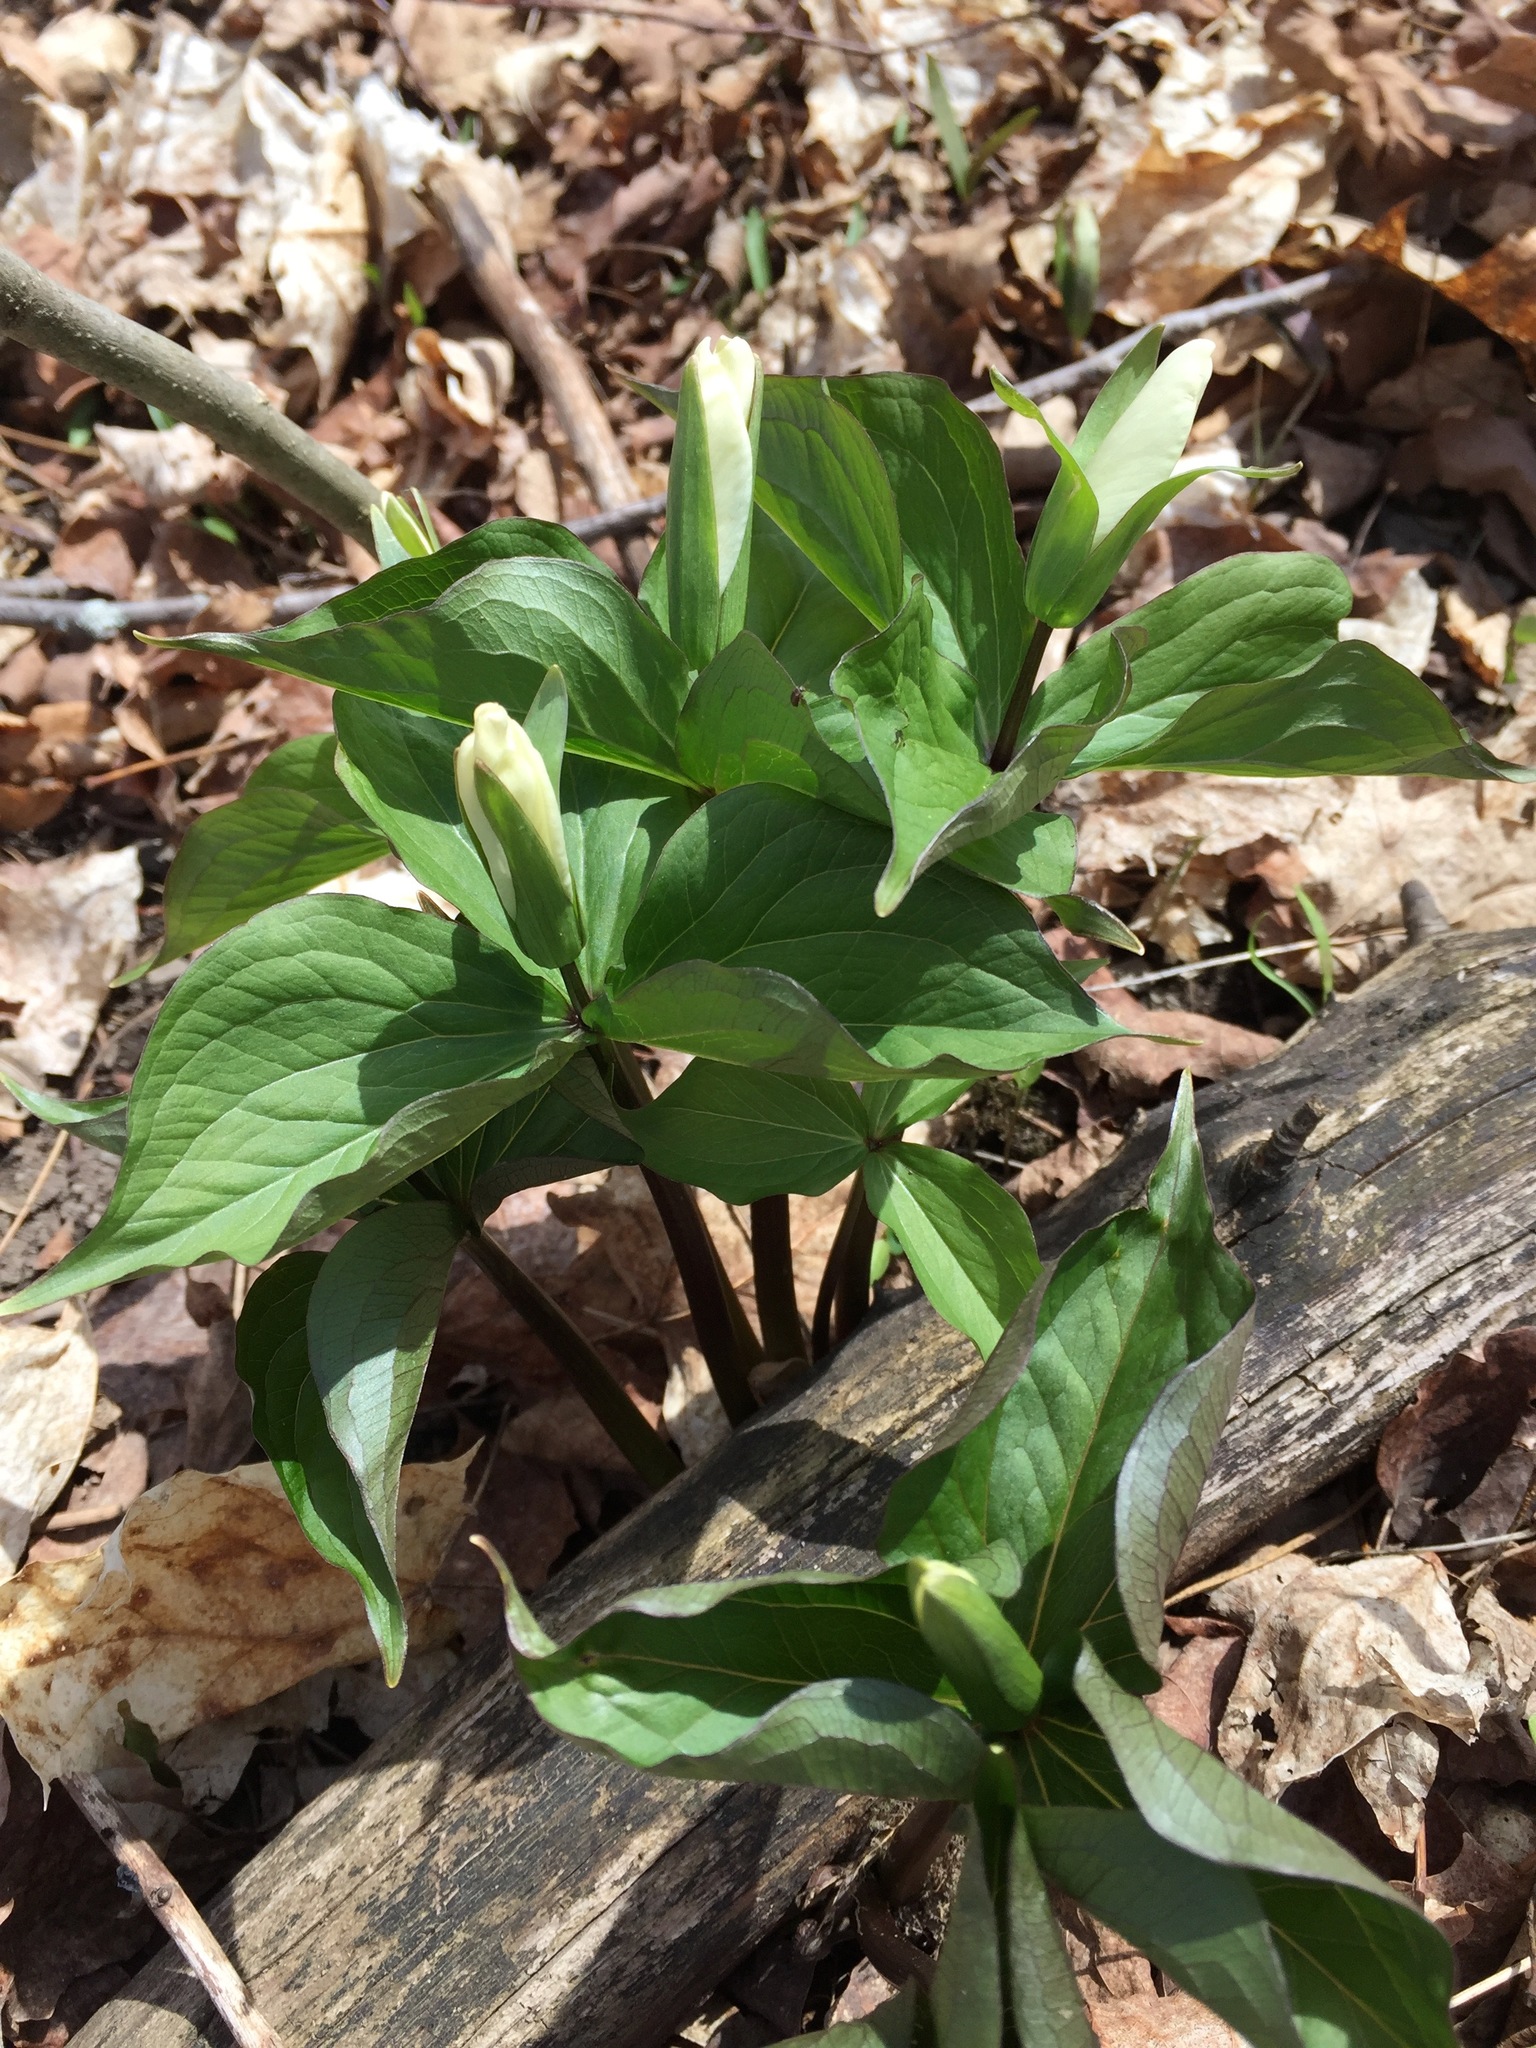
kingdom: Plantae
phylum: Tracheophyta
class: Liliopsida
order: Liliales
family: Melanthiaceae
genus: Trillium
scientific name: Trillium grandiflorum
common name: Great white trillium
